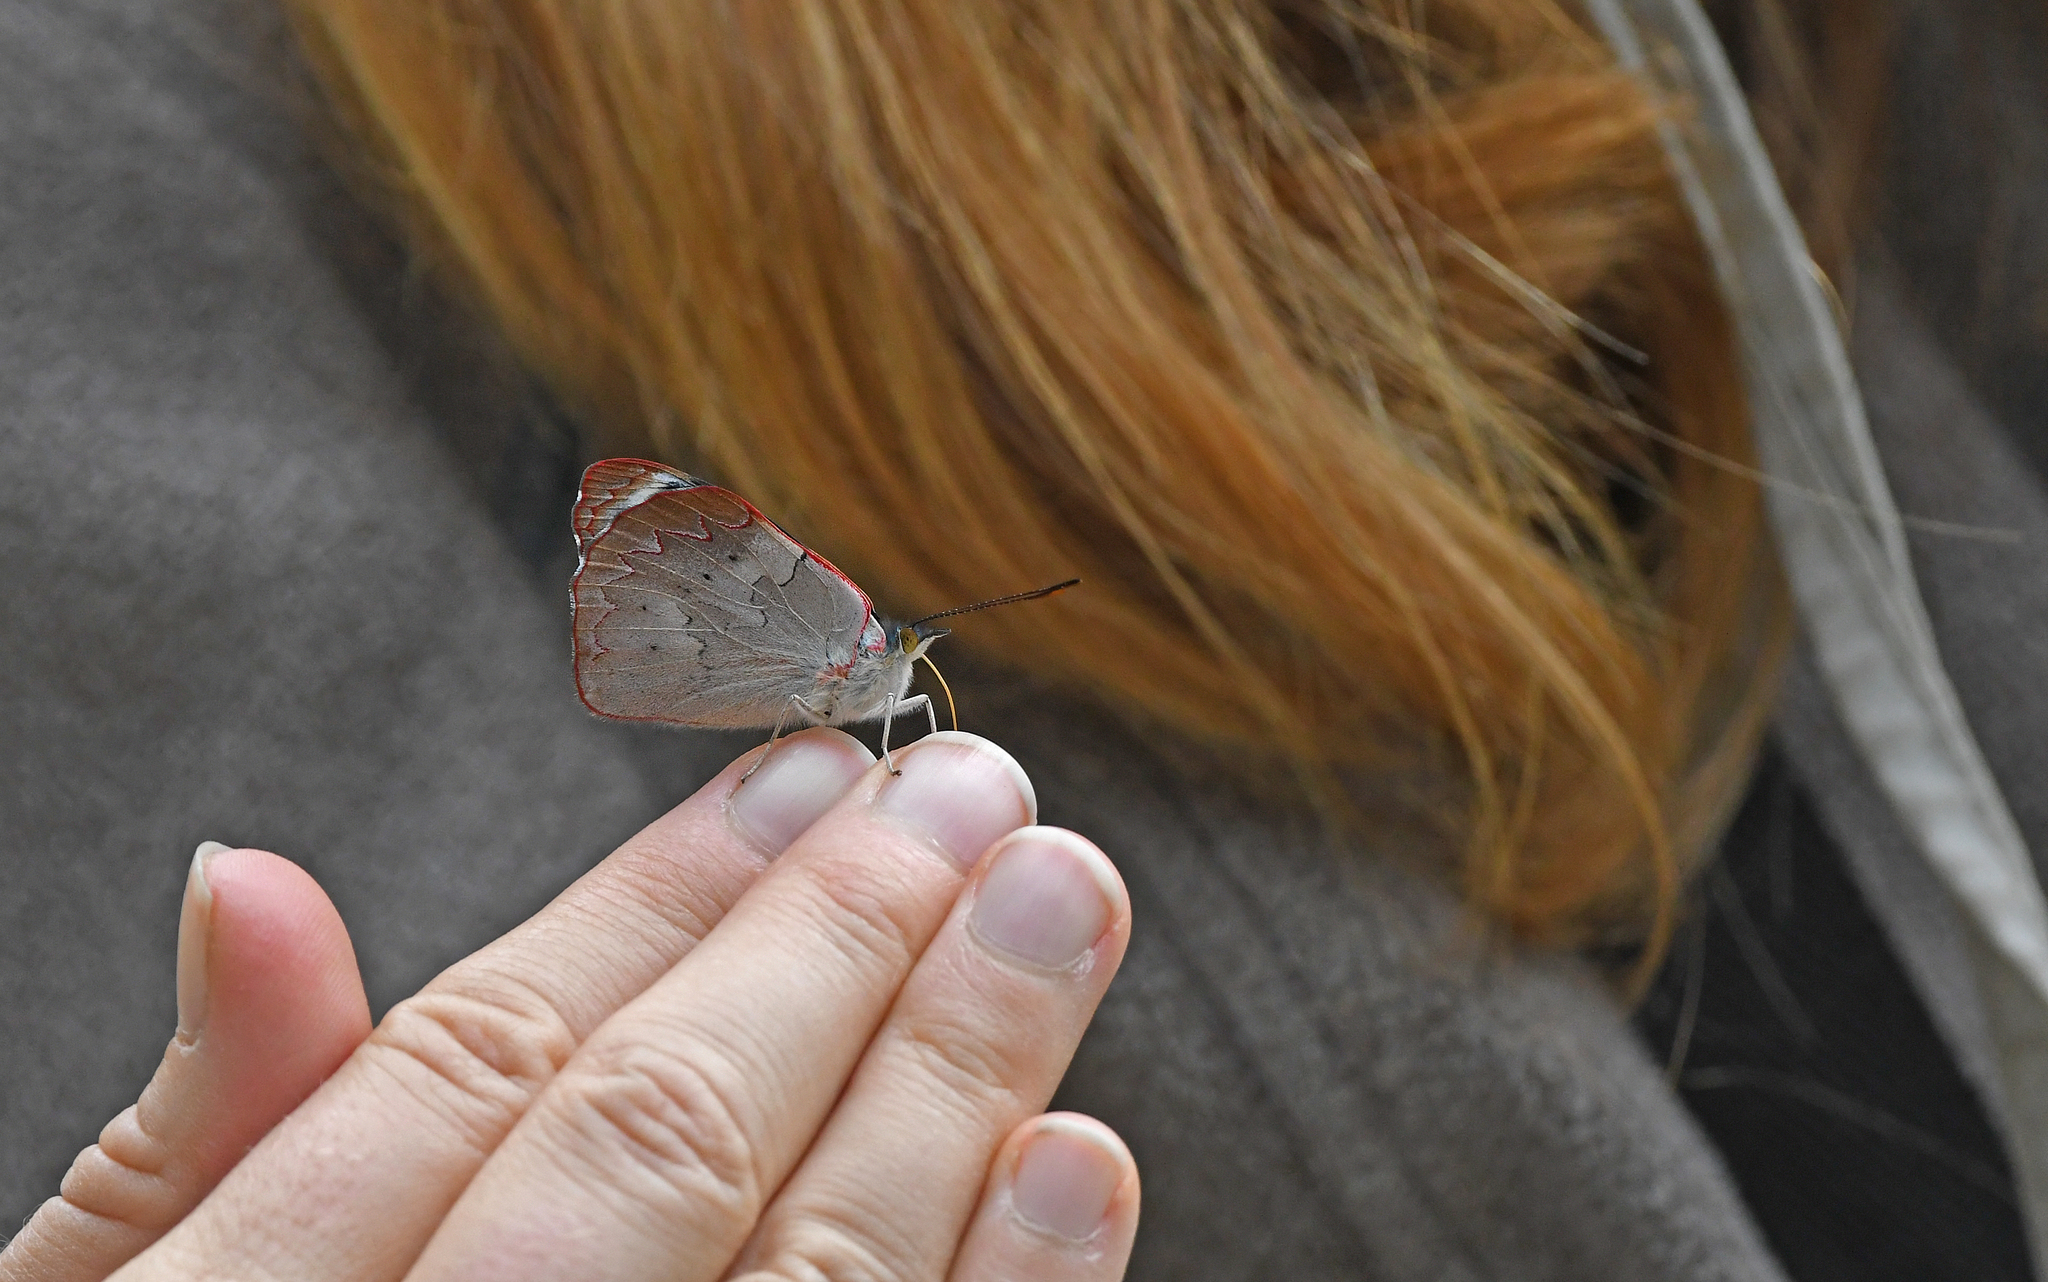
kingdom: Animalia
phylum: Arthropoda
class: Insecta
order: Lepidoptera
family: Nymphalidae
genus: Perisama
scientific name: Perisama calamis
